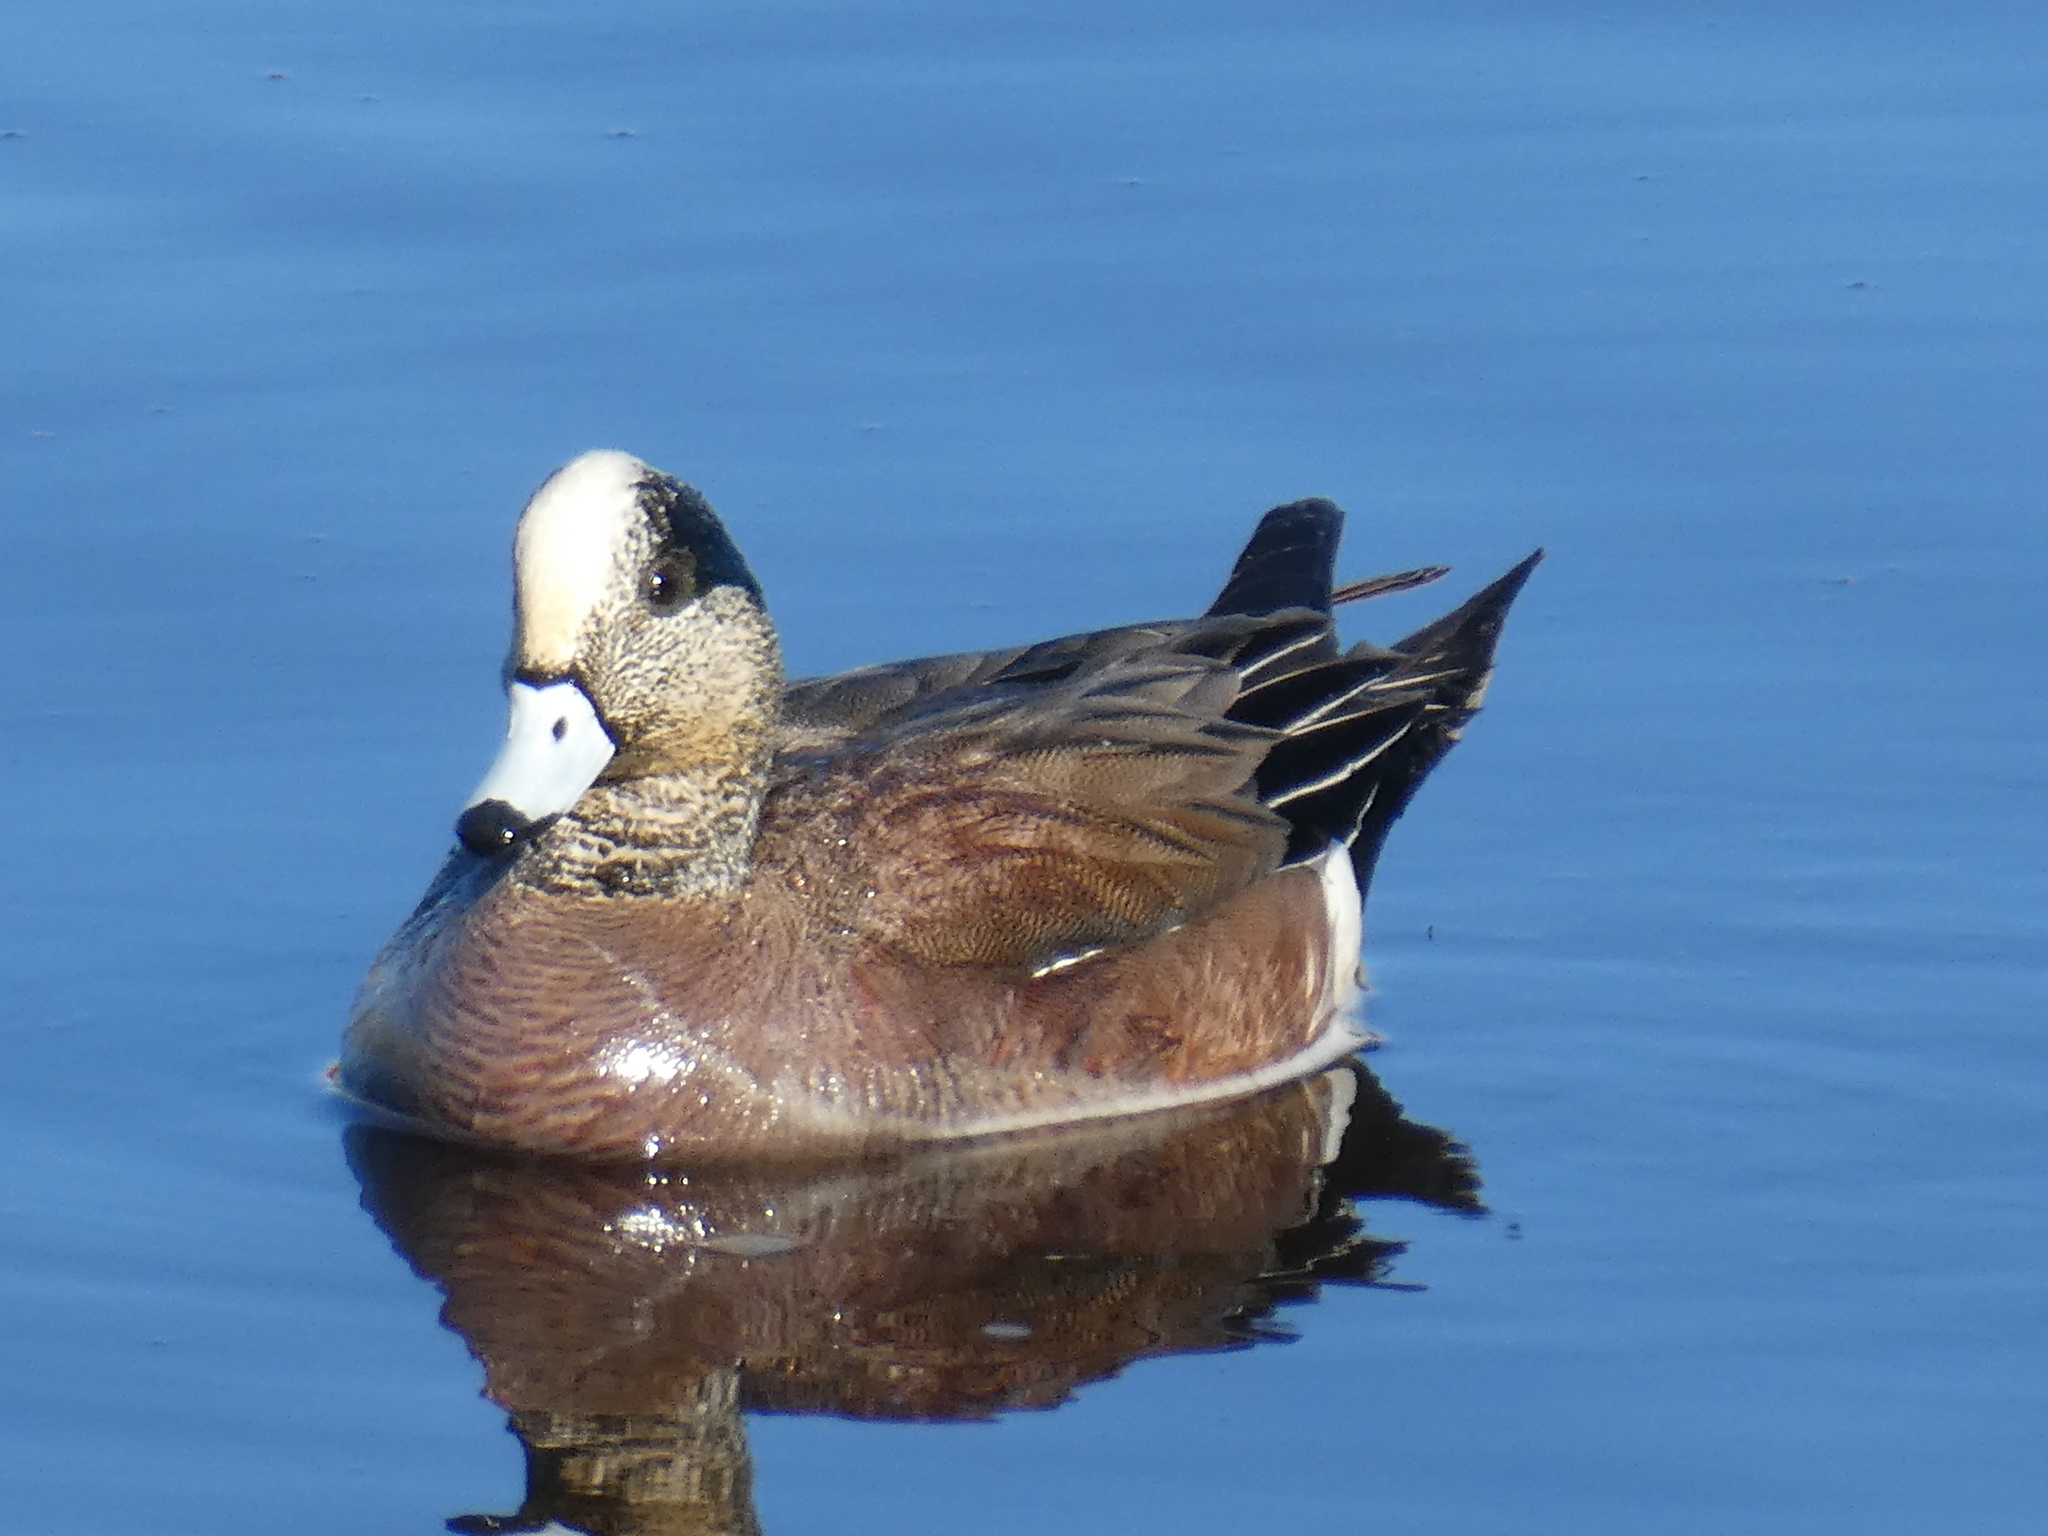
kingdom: Animalia
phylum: Chordata
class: Aves
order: Anseriformes
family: Anatidae
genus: Mareca
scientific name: Mareca americana
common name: American wigeon
